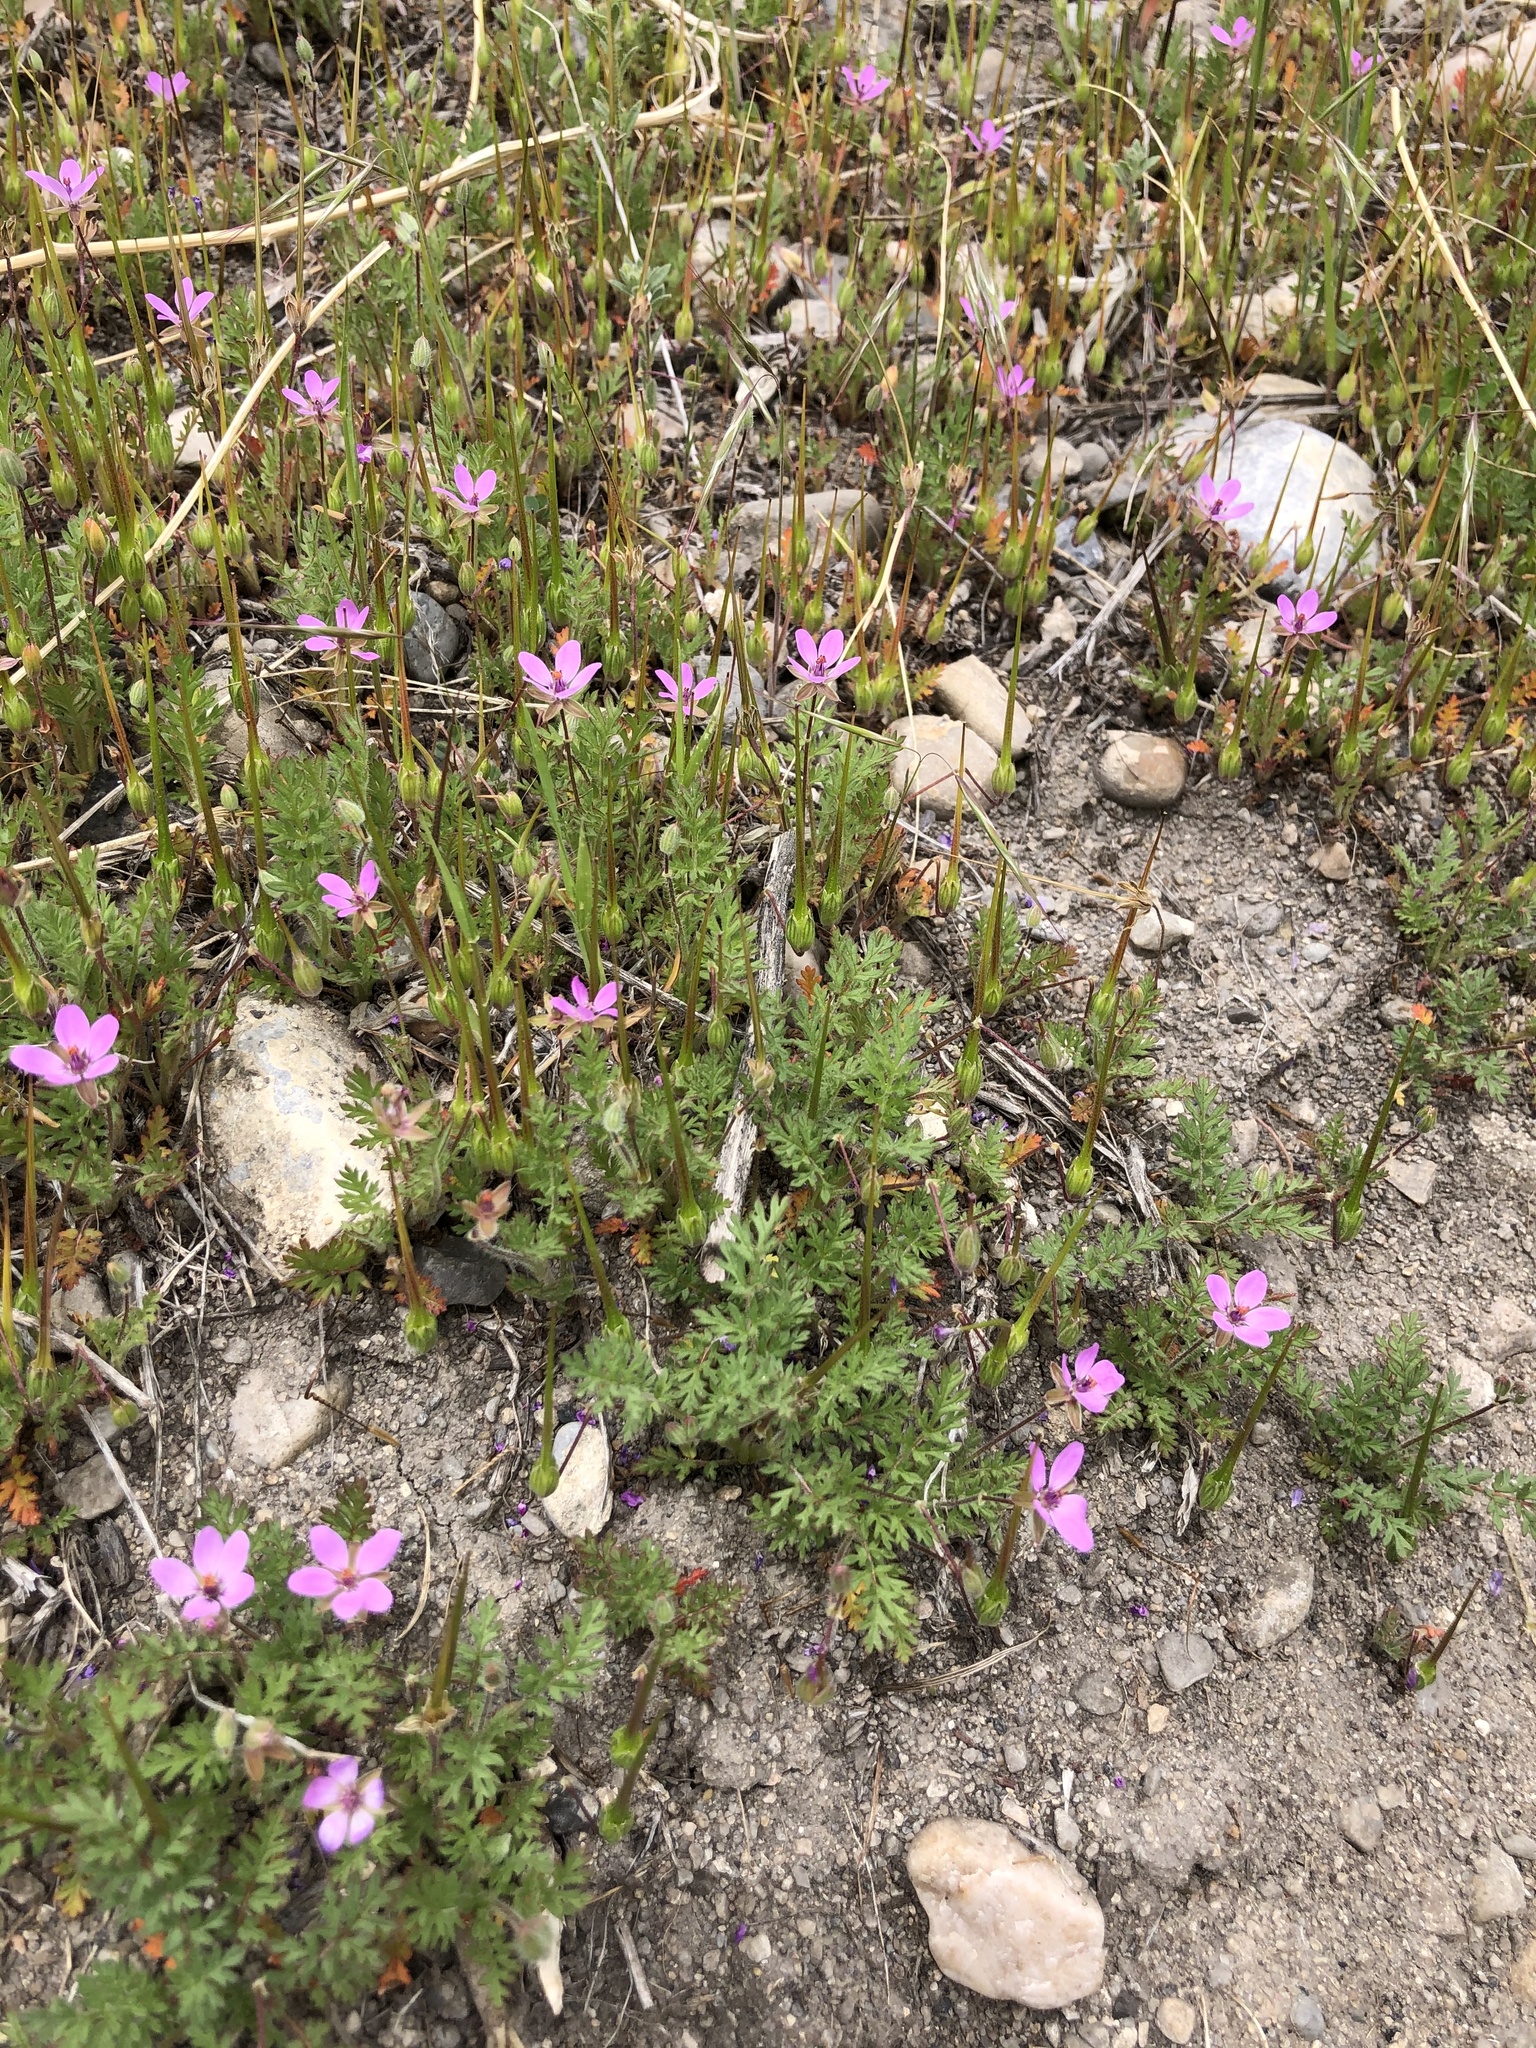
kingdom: Plantae
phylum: Tracheophyta
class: Magnoliopsida
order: Geraniales
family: Geraniaceae
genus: Erodium
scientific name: Erodium cicutarium
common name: Common stork's-bill
